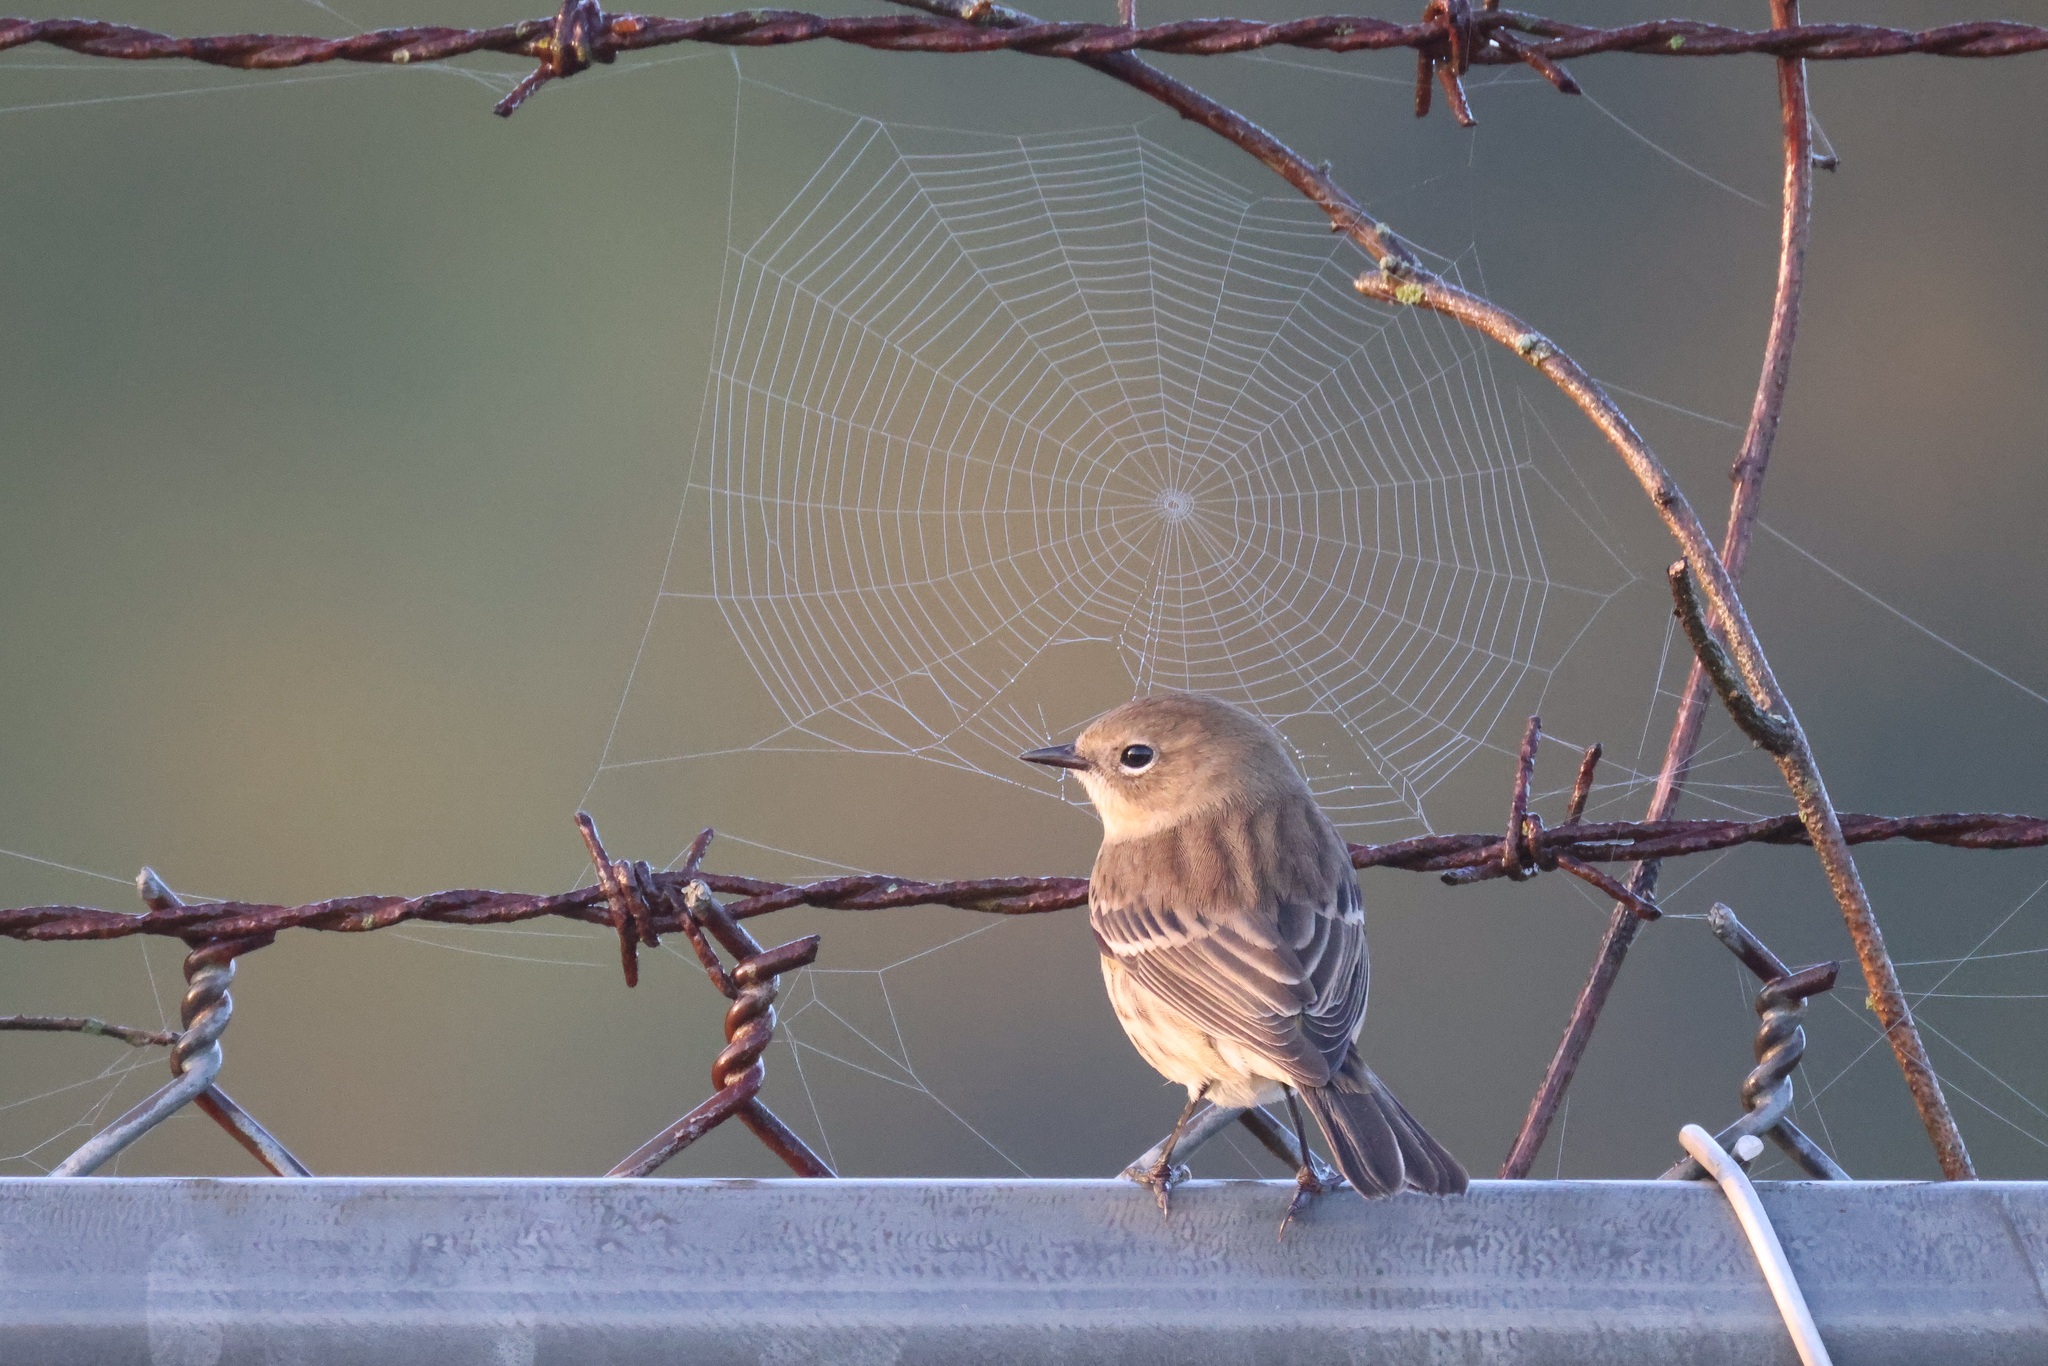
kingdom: Animalia
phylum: Chordata
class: Aves
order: Passeriformes
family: Parulidae
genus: Setophaga
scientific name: Setophaga coronata
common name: Myrtle warbler
